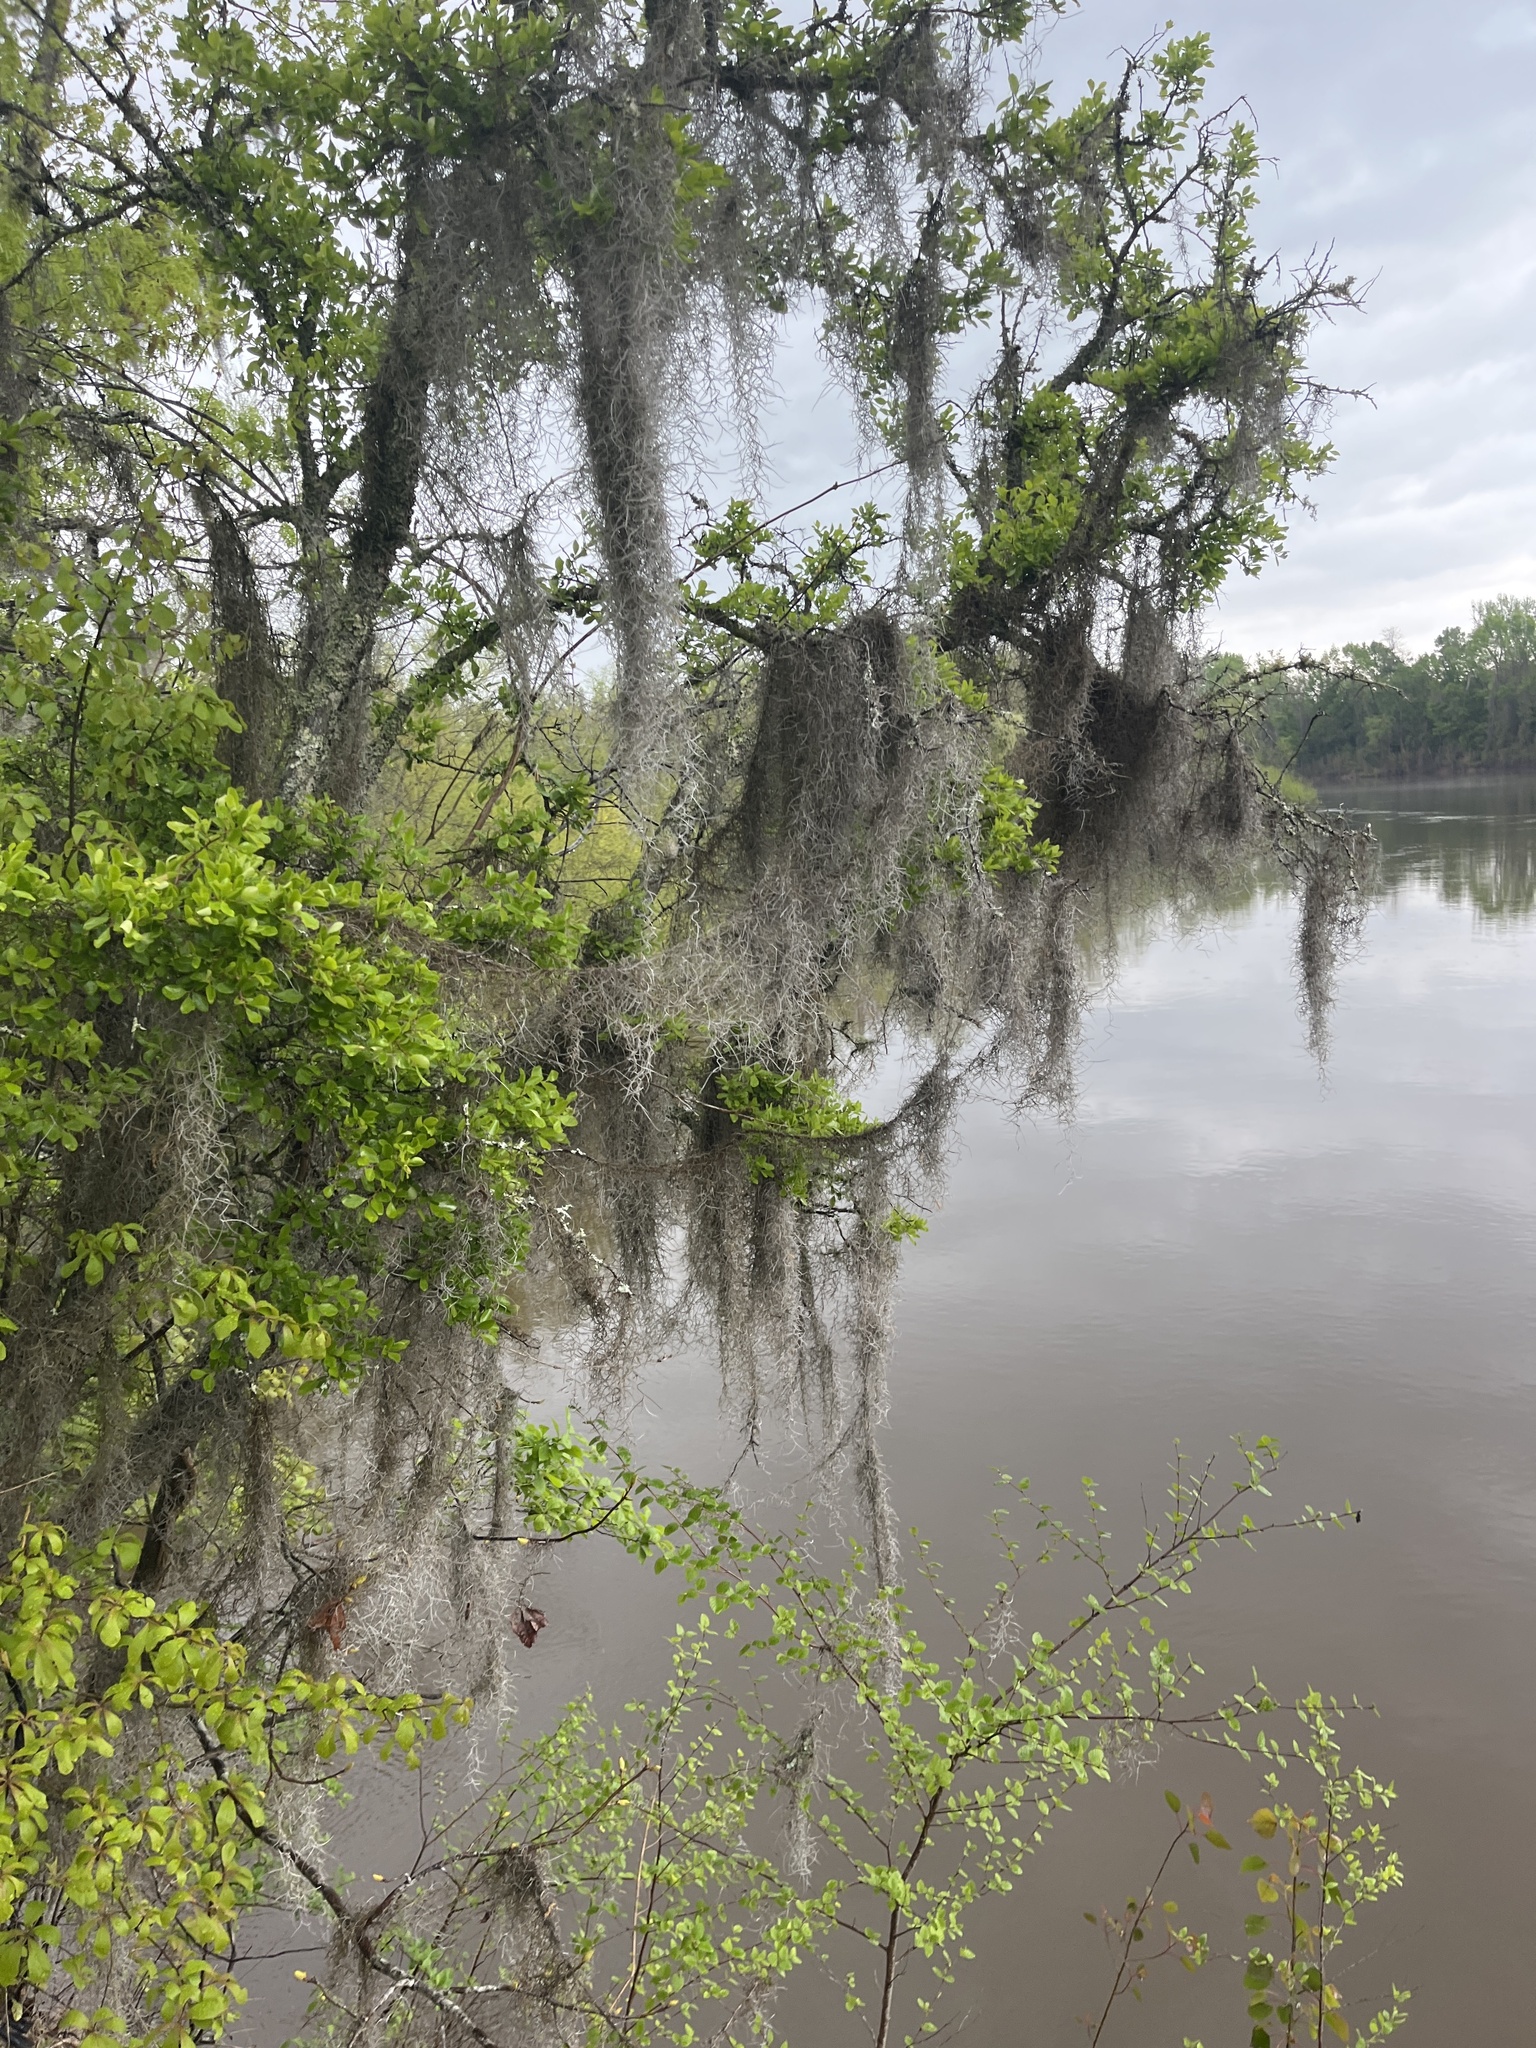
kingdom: Plantae
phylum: Tracheophyta
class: Liliopsida
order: Poales
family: Bromeliaceae
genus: Tillandsia
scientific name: Tillandsia usneoides
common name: Spanish moss
